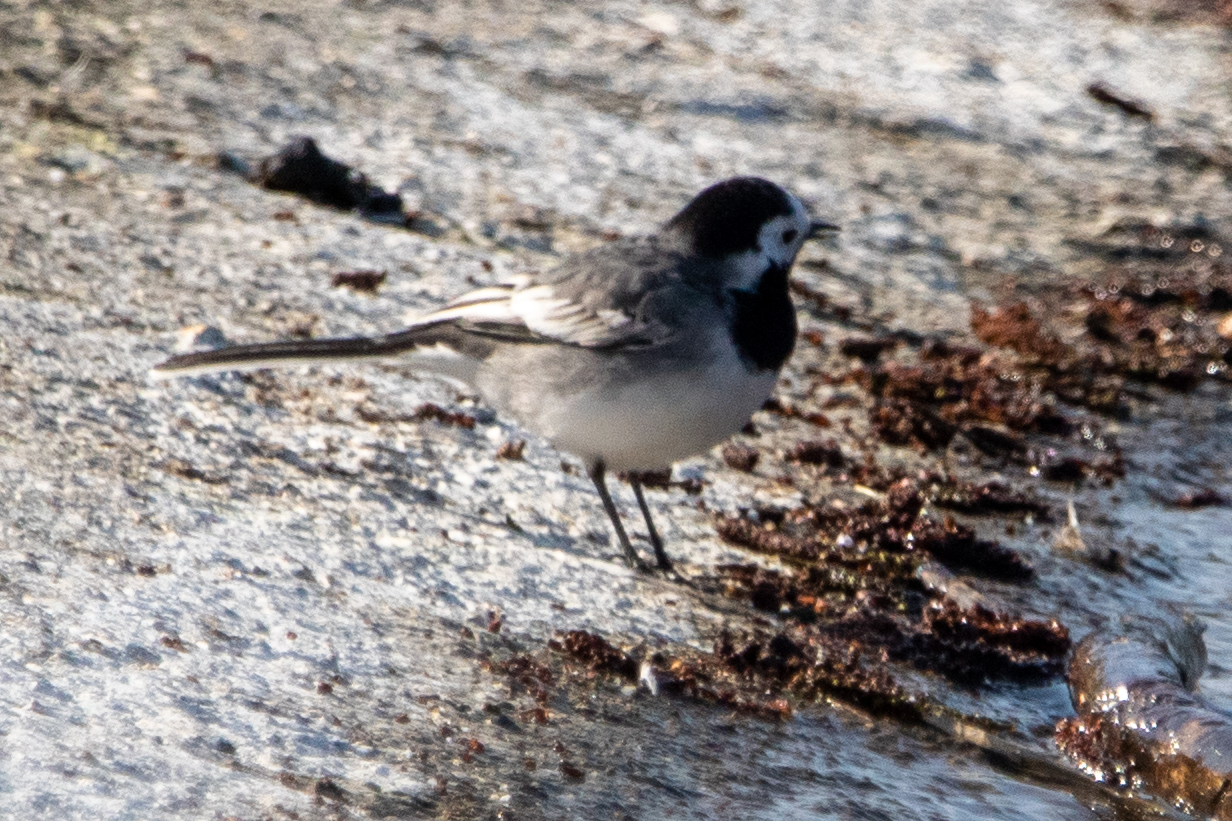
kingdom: Animalia
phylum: Chordata
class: Aves
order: Passeriformes
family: Motacillidae
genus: Motacilla
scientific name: Motacilla alba
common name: White wagtail
